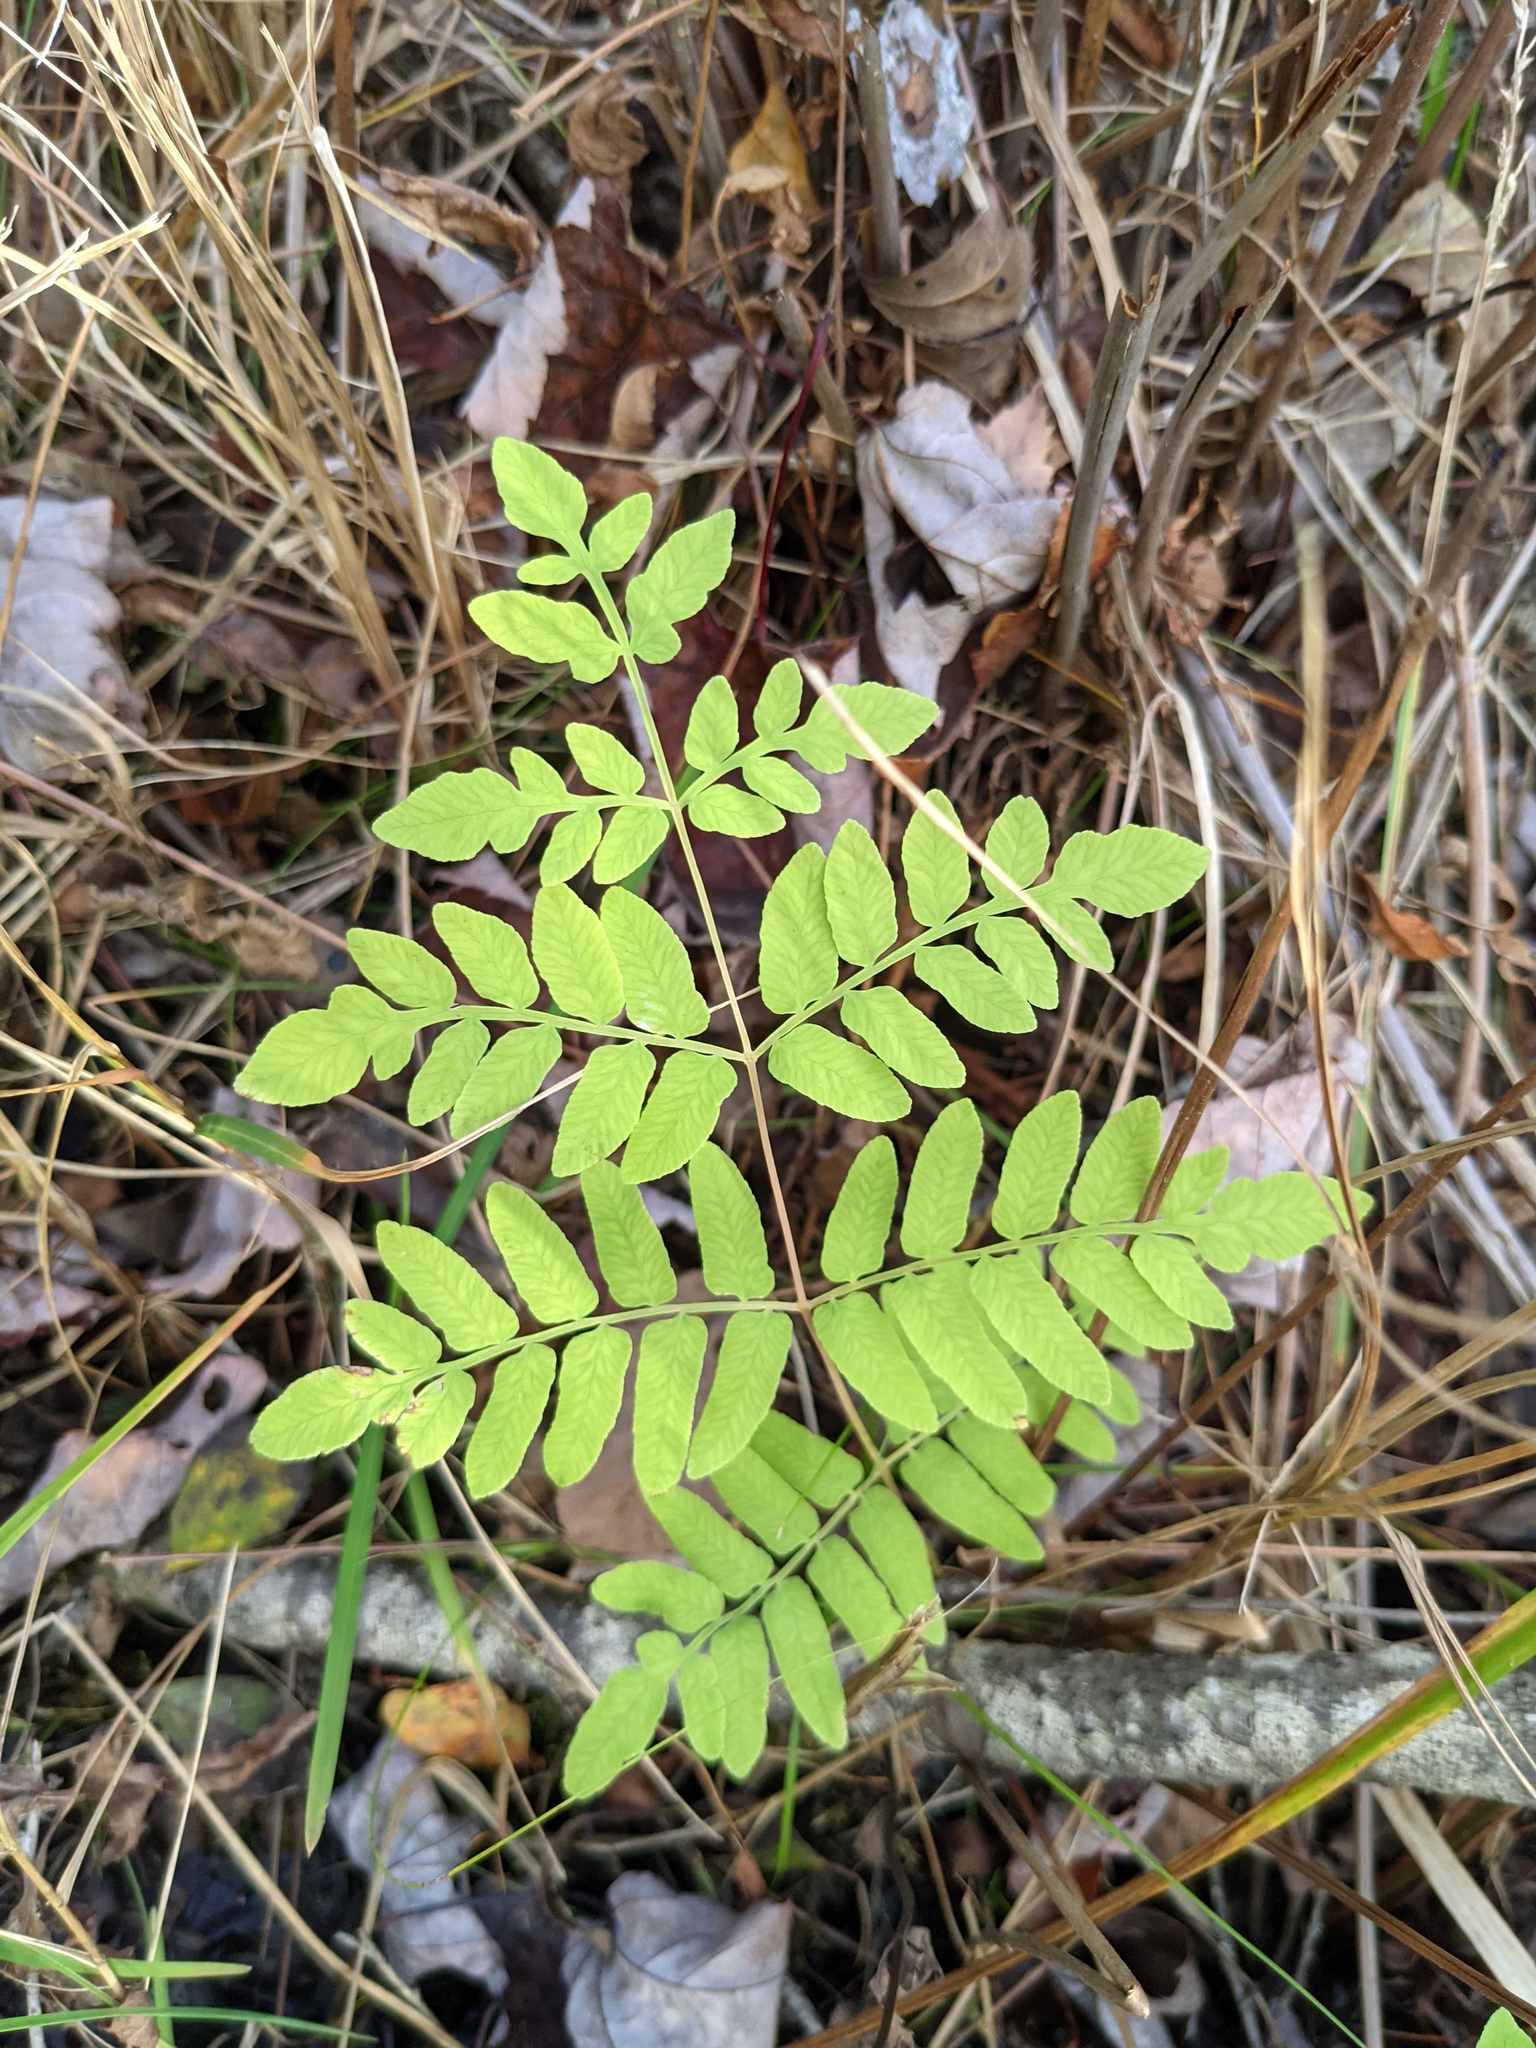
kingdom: Plantae
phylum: Tracheophyta
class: Polypodiopsida
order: Osmundales
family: Osmundaceae
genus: Osmunda
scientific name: Osmunda spectabilis
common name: American royal fern
